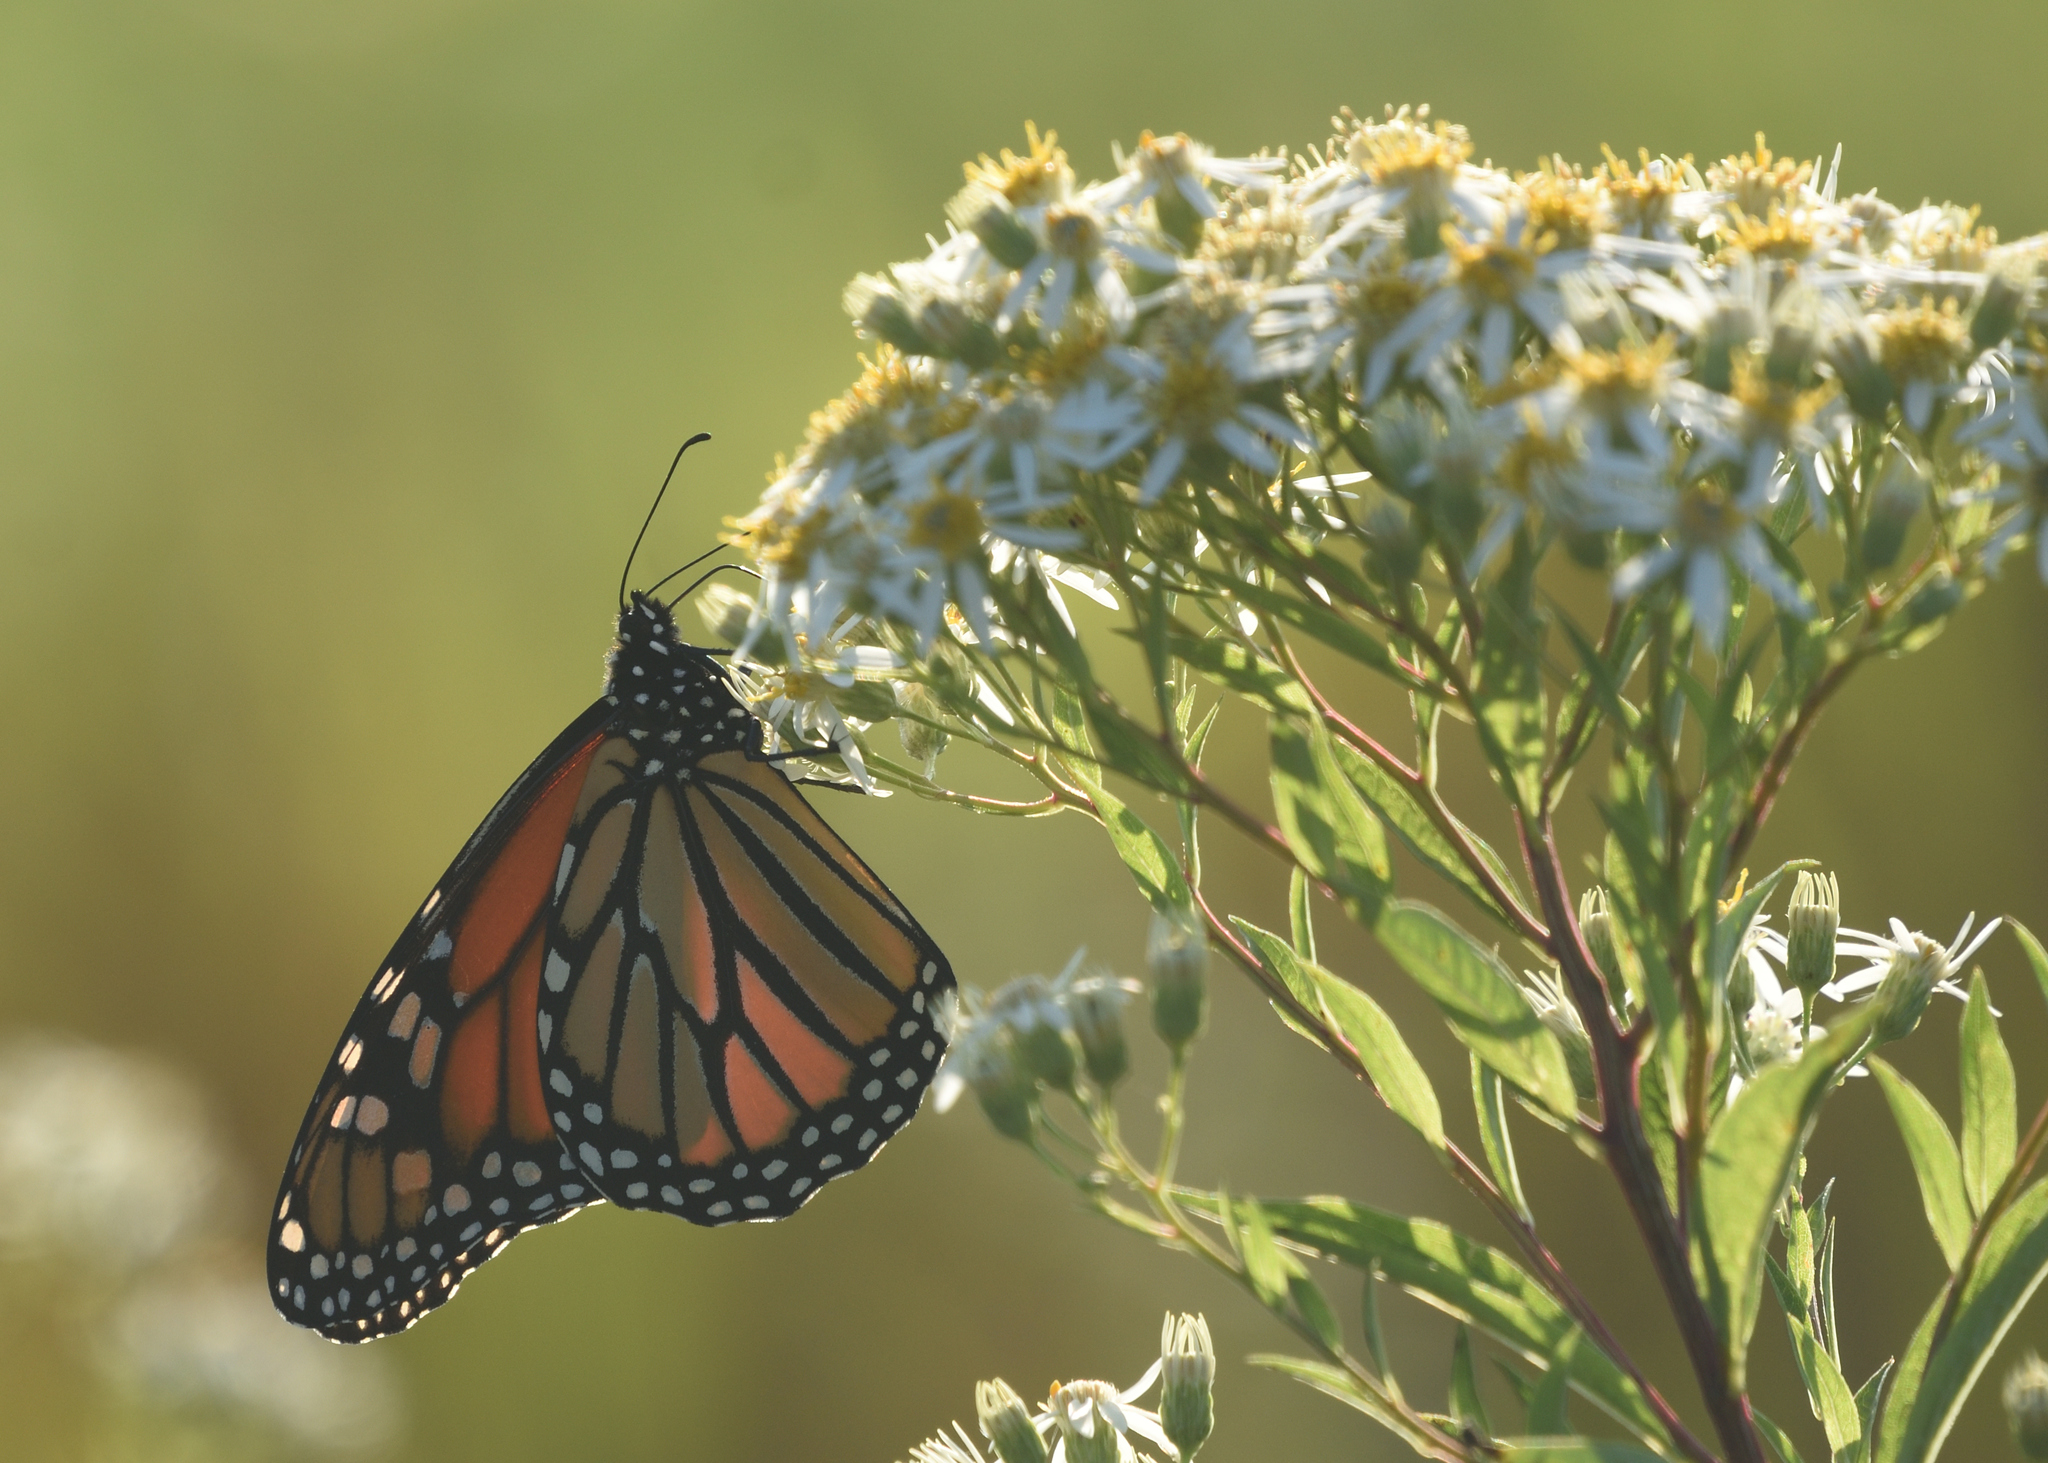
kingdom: Animalia
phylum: Arthropoda
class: Insecta
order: Lepidoptera
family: Nymphalidae
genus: Danaus
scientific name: Danaus plexippus
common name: Monarch
